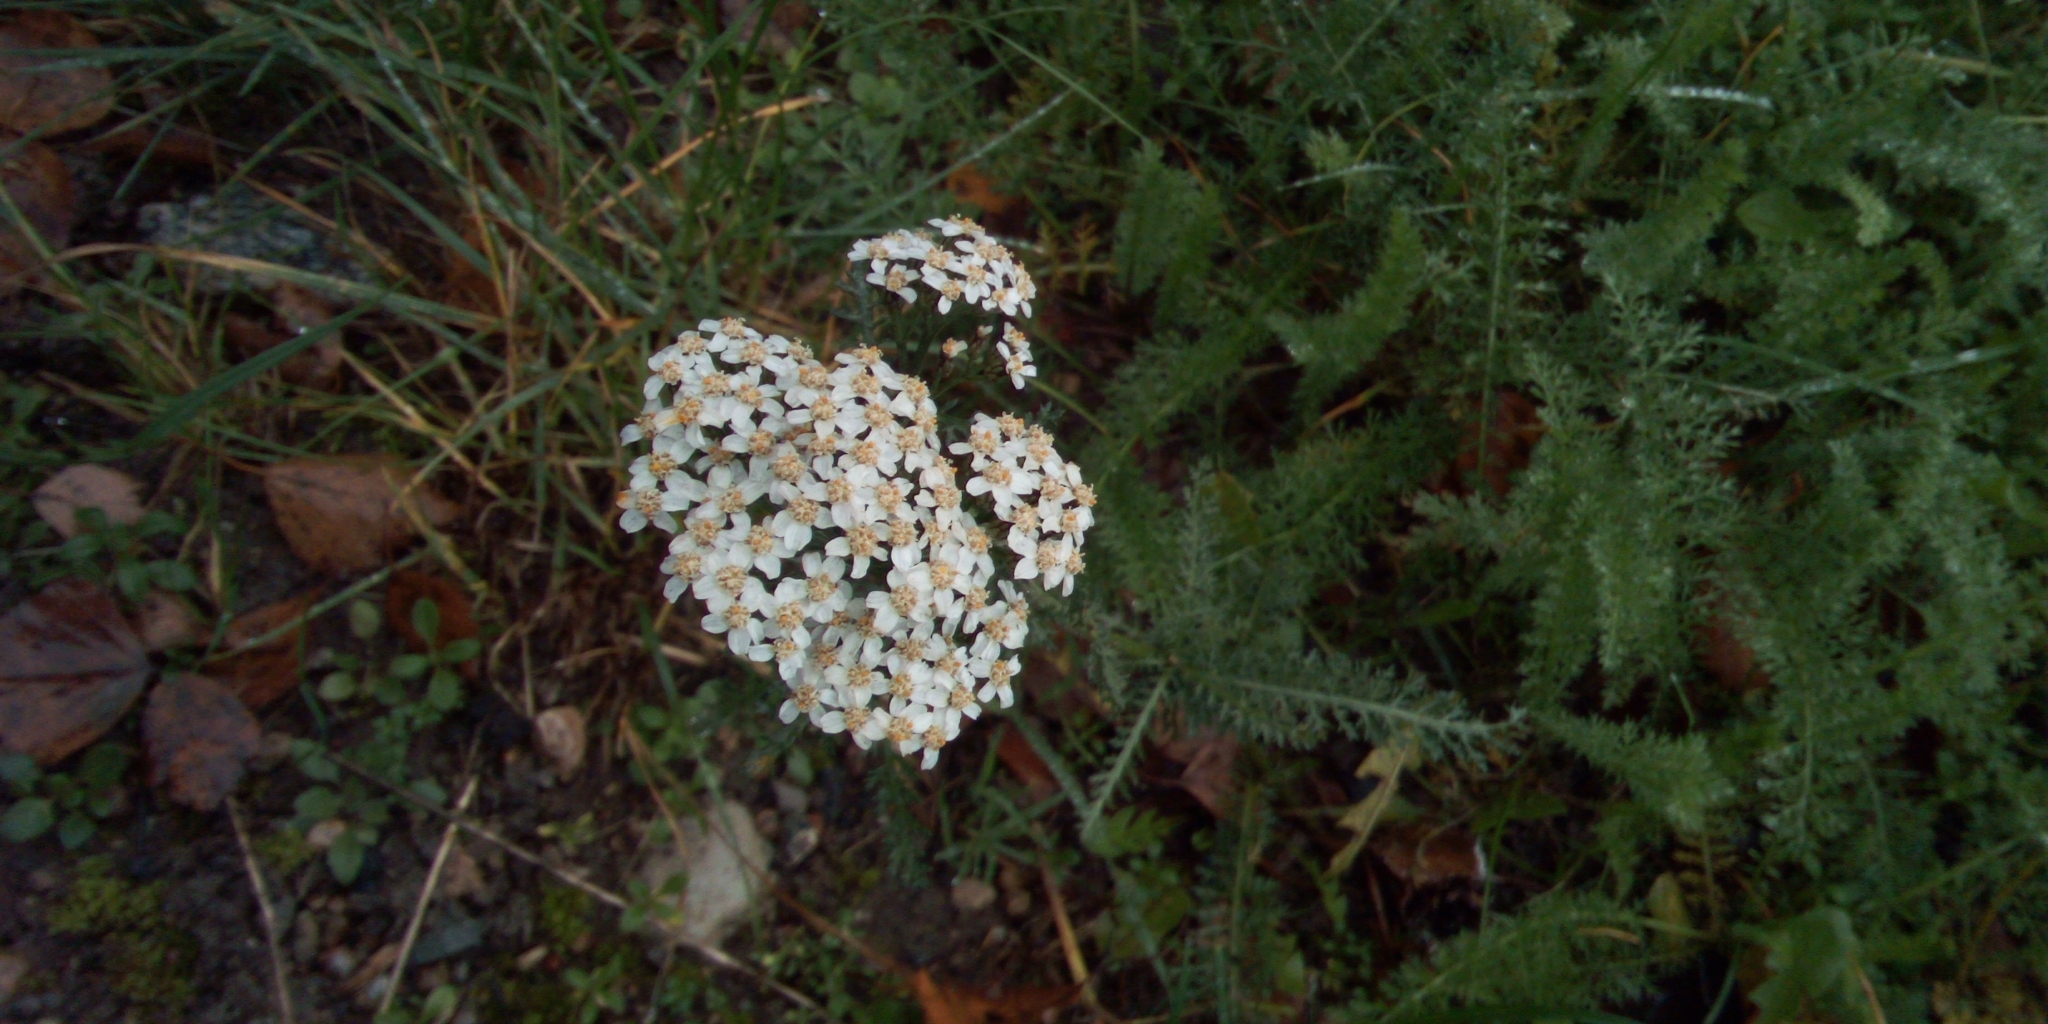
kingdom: Plantae
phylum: Tracheophyta
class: Magnoliopsida
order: Asterales
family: Asteraceae
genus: Achillea
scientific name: Achillea millefolium
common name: Yarrow
